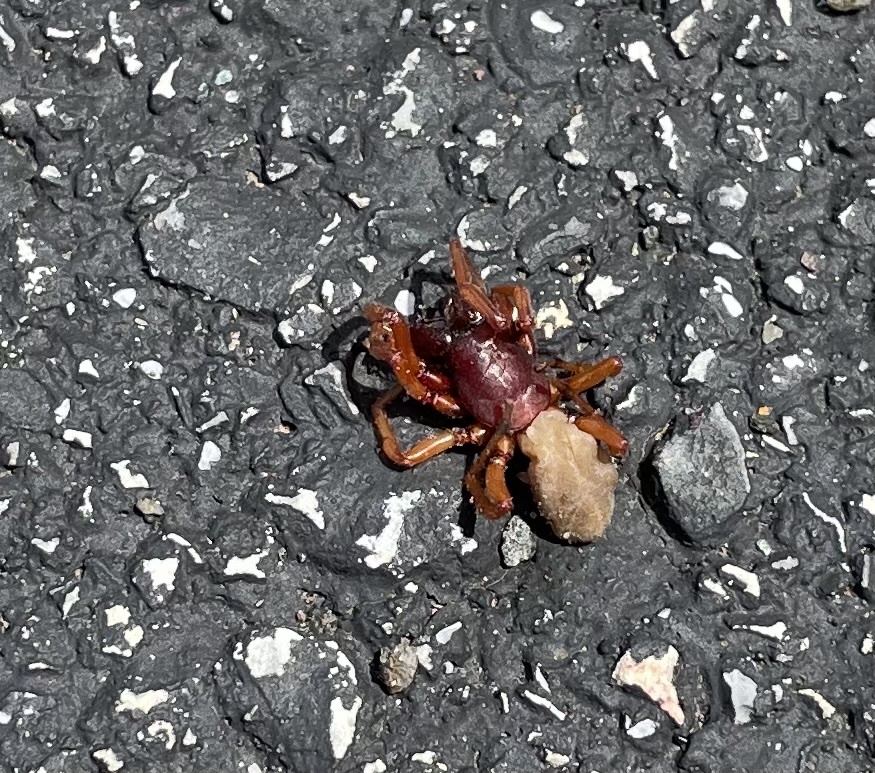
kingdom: Animalia
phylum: Arthropoda
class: Arachnida
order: Araneae
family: Dysderidae
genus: Dysdera
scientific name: Dysdera crocata
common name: Woodlouse spider
